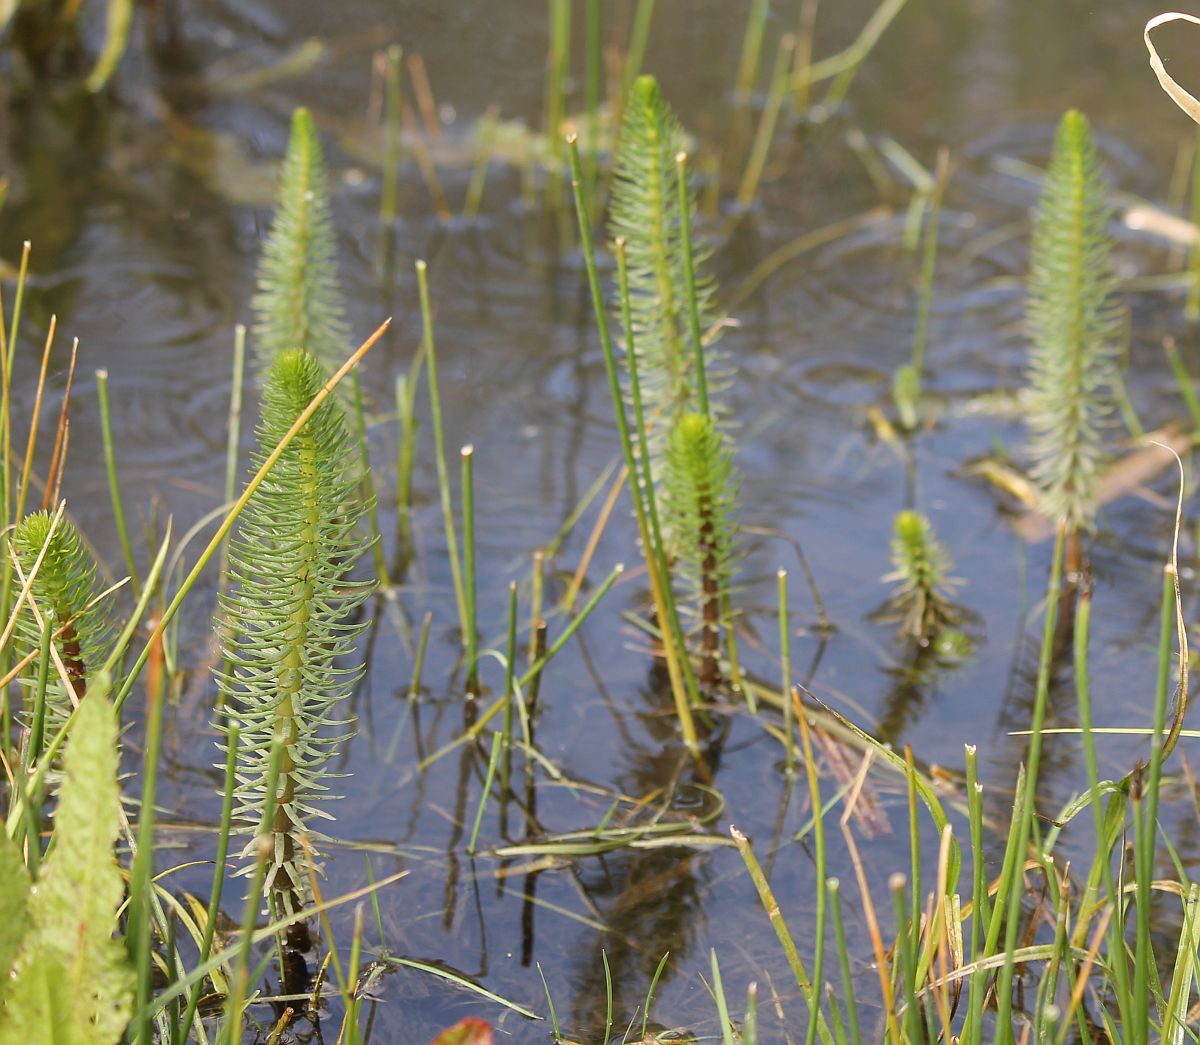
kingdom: Plantae
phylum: Tracheophyta
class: Magnoliopsida
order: Lamiales
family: Plantaginaceae
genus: Hippuris
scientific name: Hippuris vulgaris
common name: Mare's-tail
